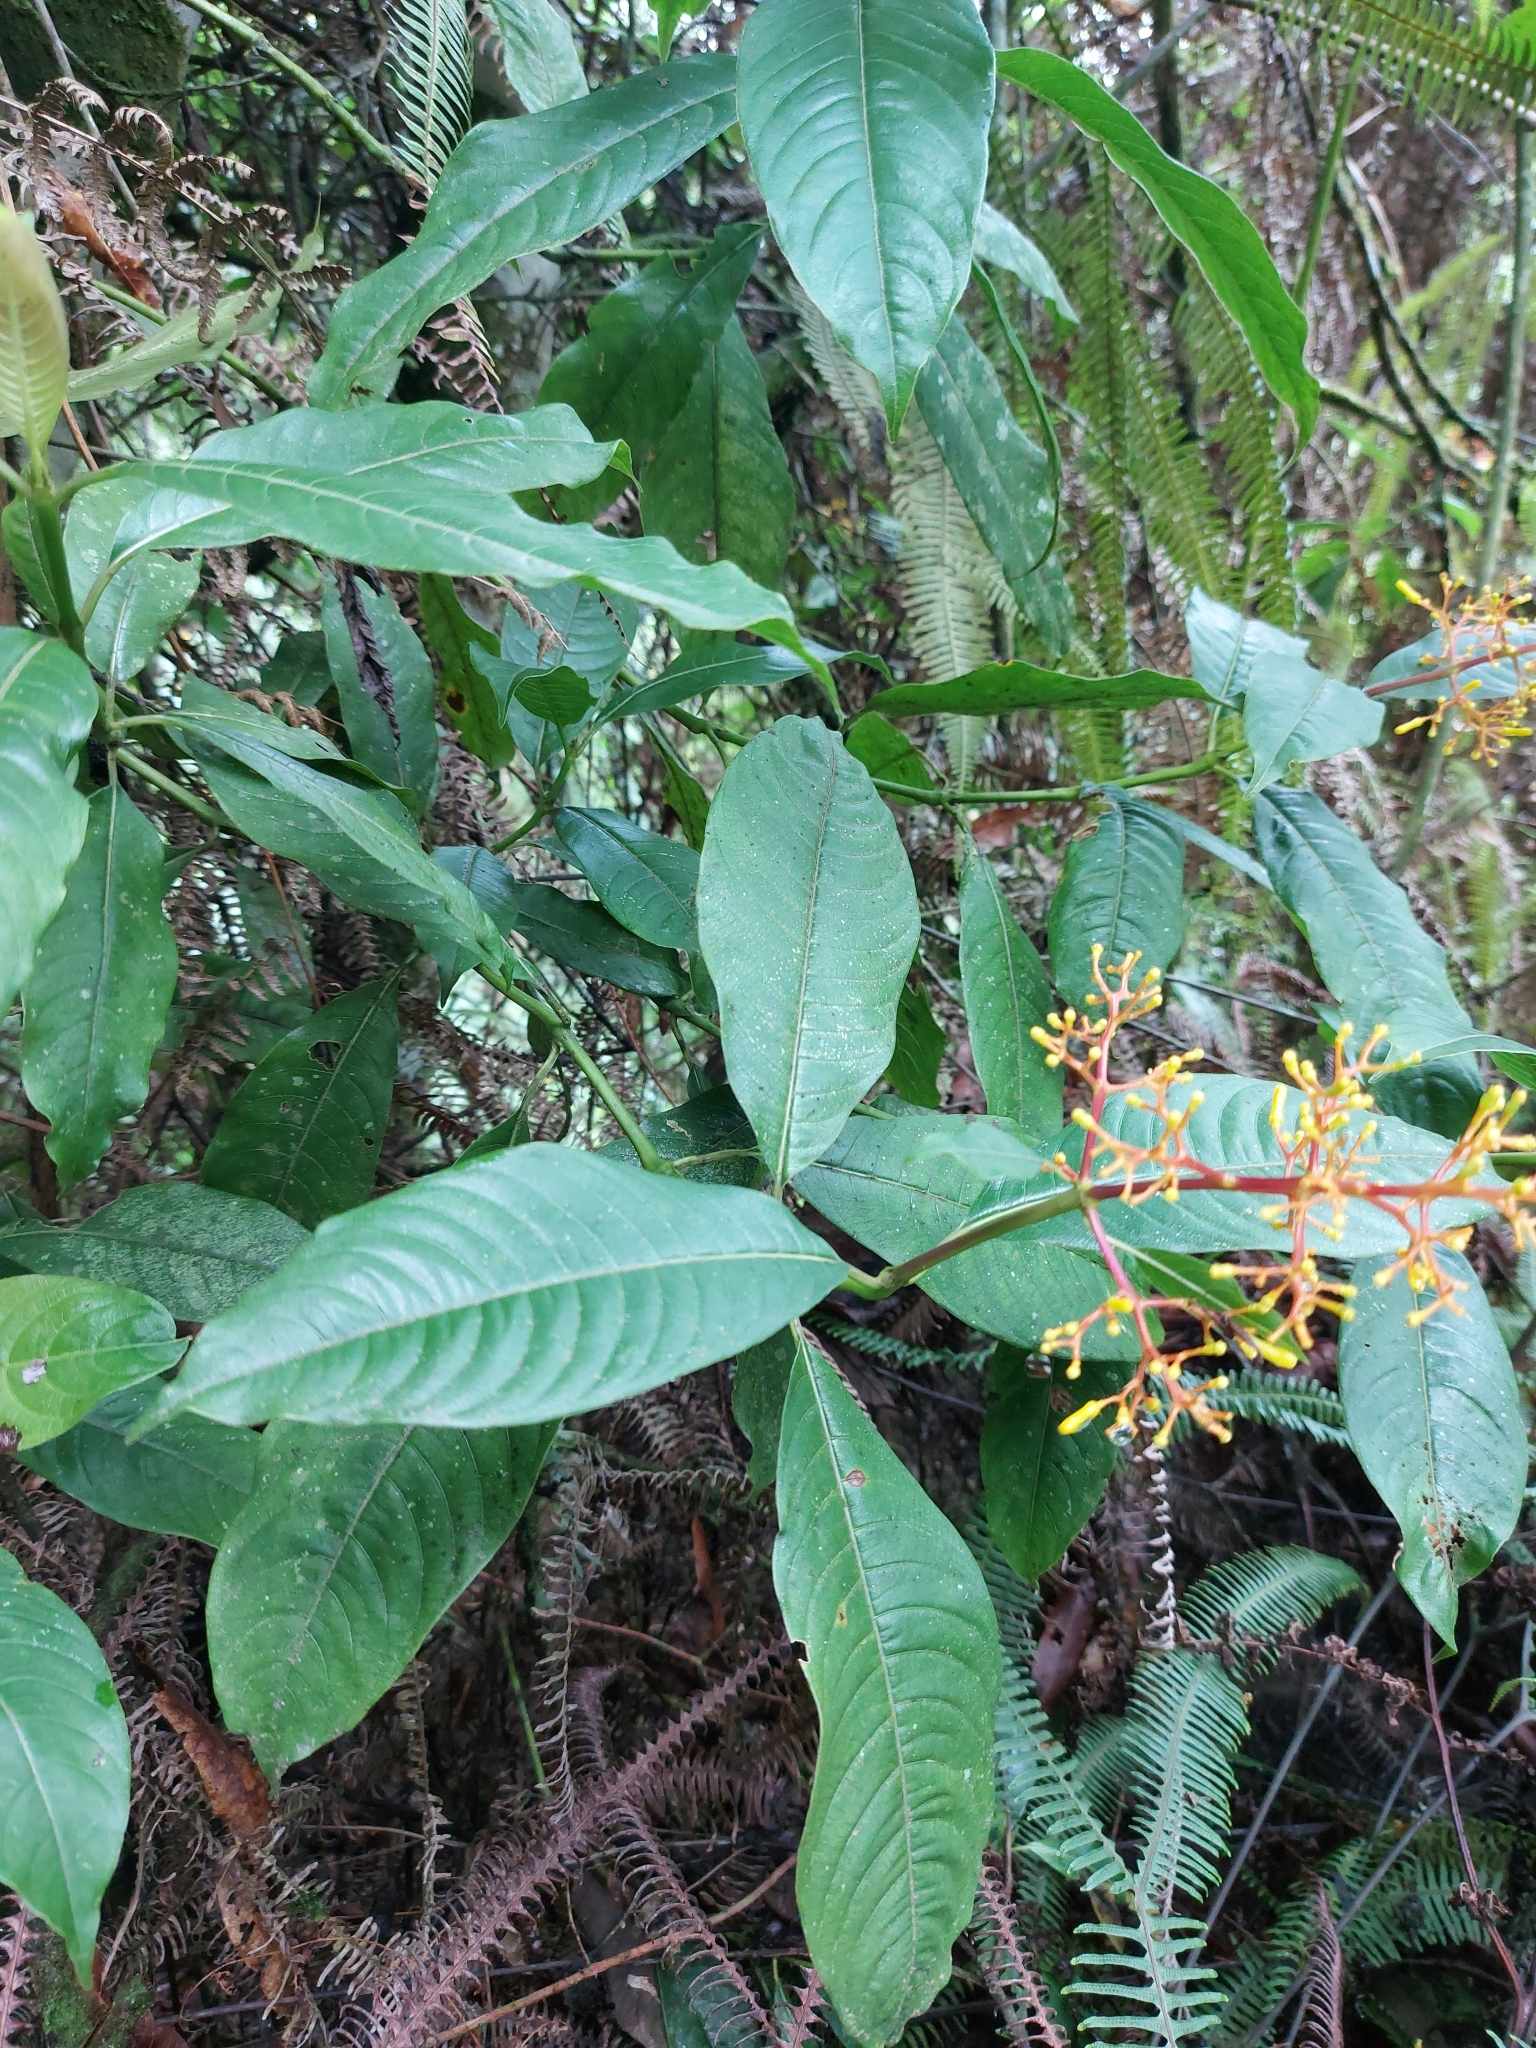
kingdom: Plantae
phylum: Tracheophyta
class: Magnoliopsida
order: Gentianales
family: Rubiaceae
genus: Palicourea
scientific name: Palicourea padifolia
